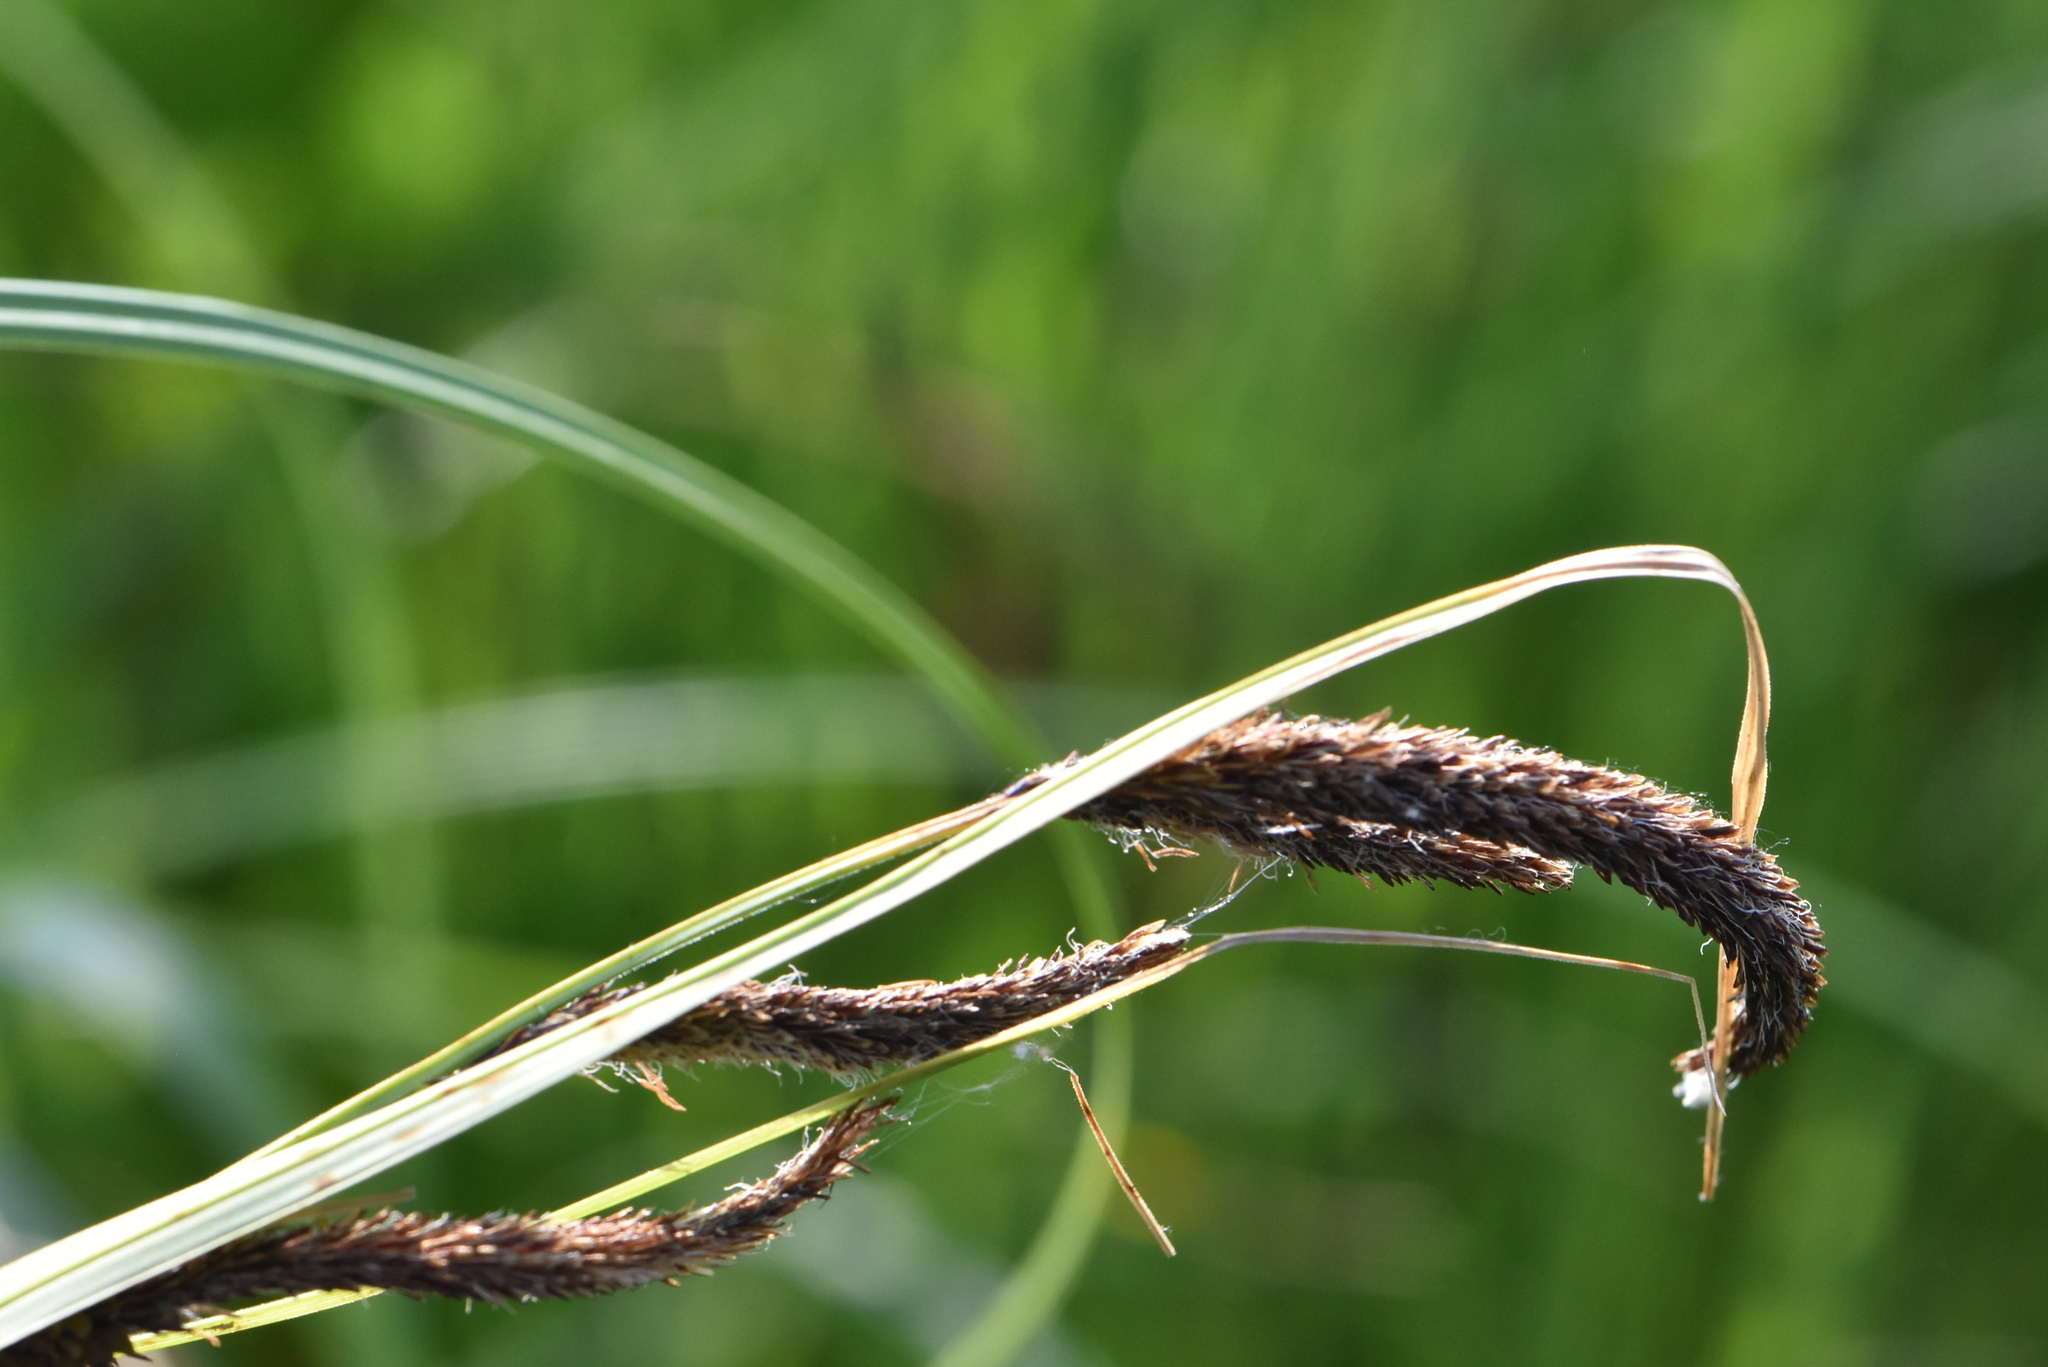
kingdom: Plantae
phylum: Tracheophyta
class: Liliopsida
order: Poales
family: Cyperaceae
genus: Carex
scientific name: Carex acuta
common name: Slender tufted-sedge
